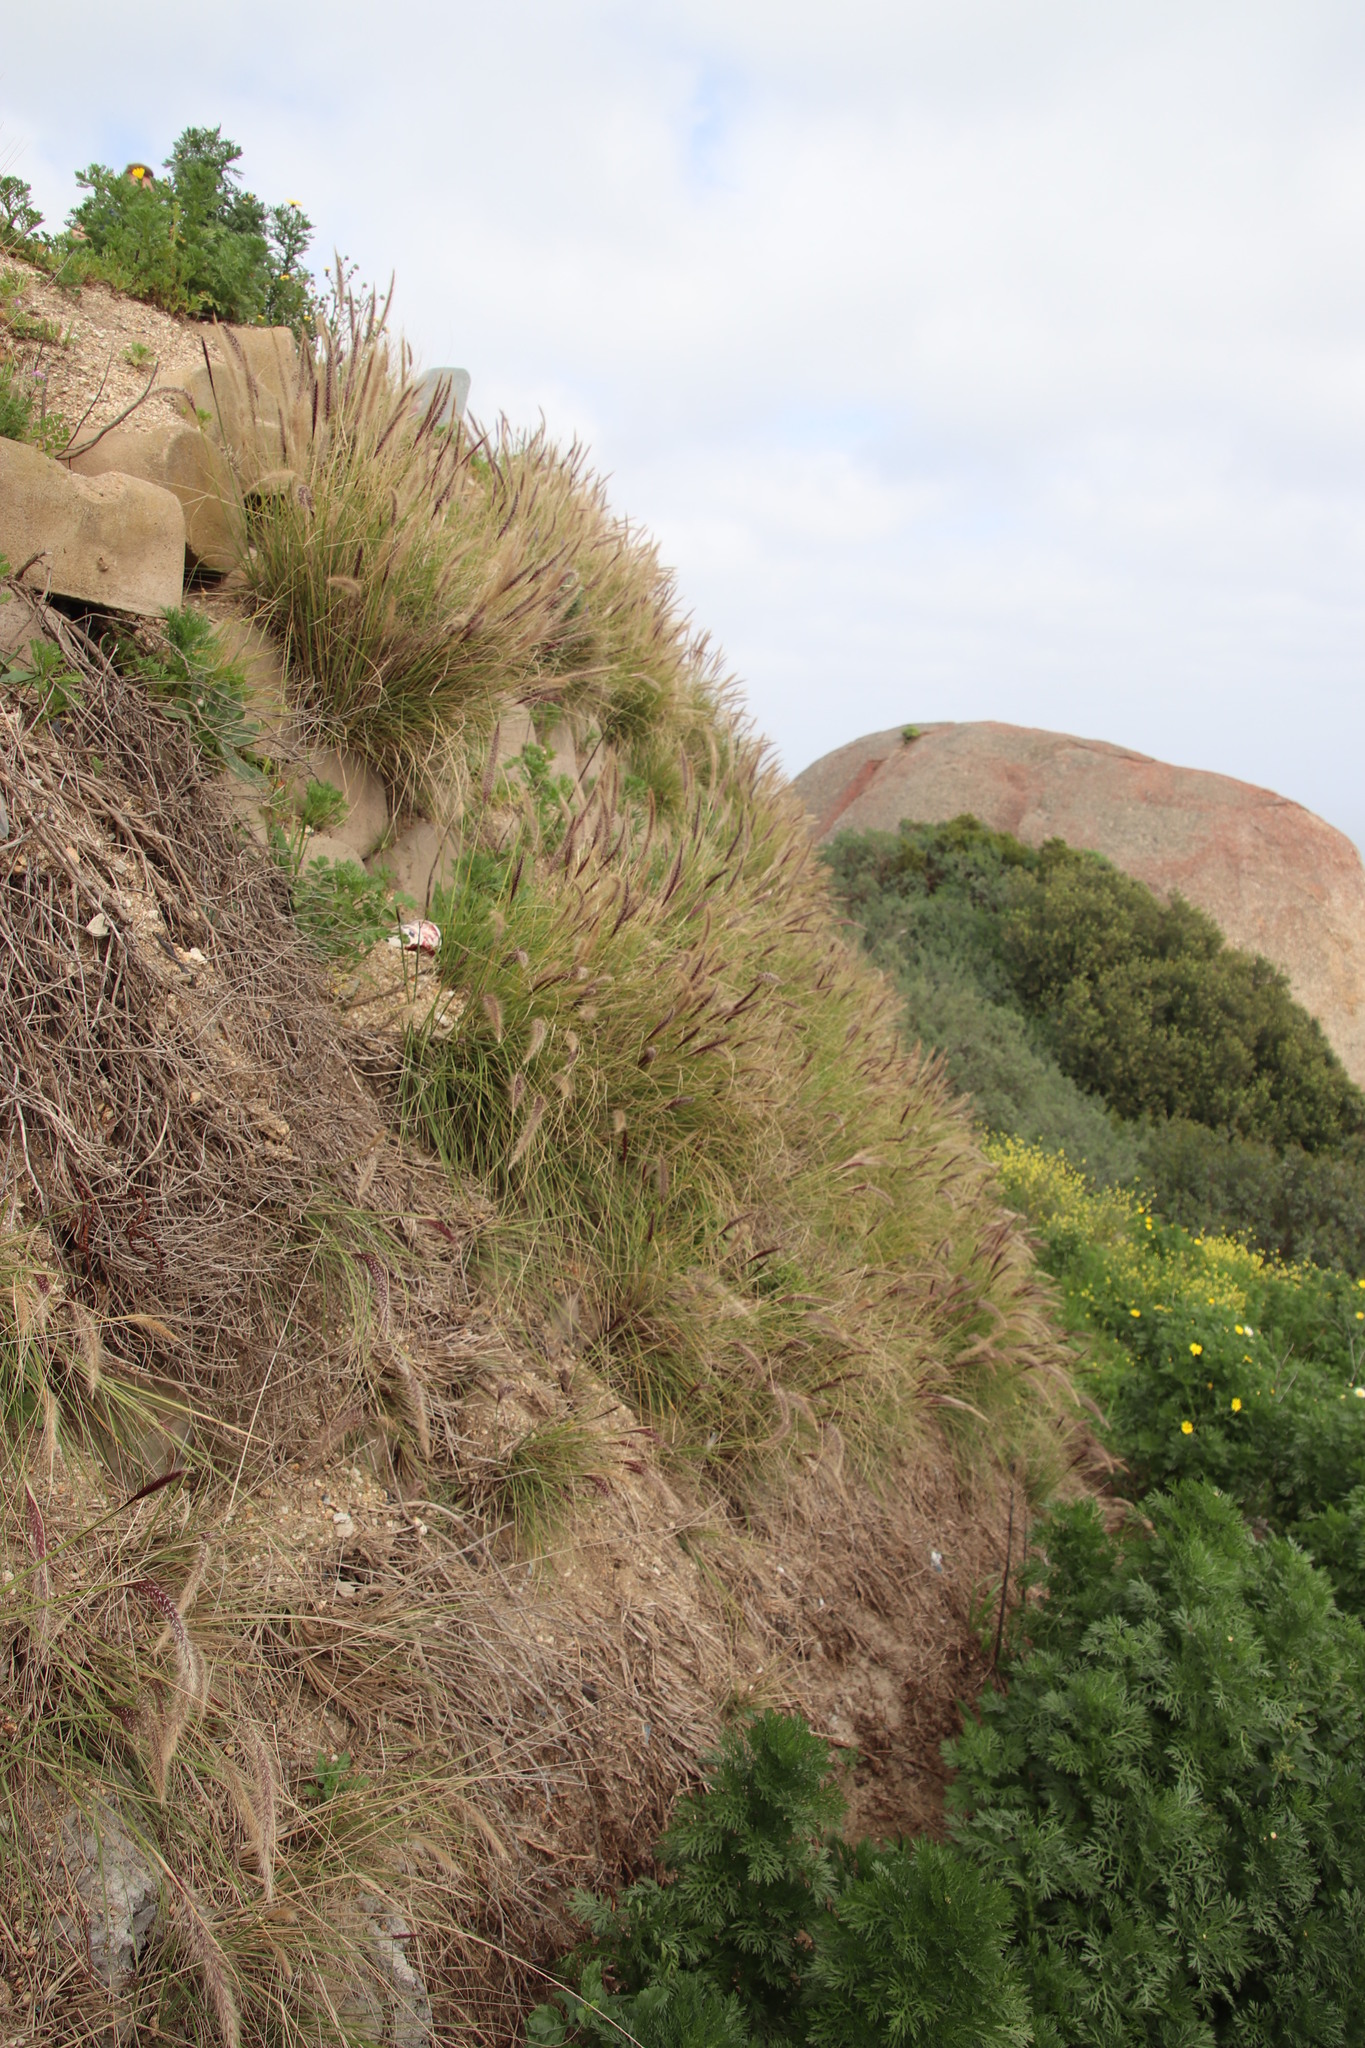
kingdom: Plantae
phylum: Tracheophyta
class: Liliopsida
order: Poales
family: Poaceae
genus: Cenchrus
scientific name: Cenchrus setaceus
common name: Crimson fountaingrass
